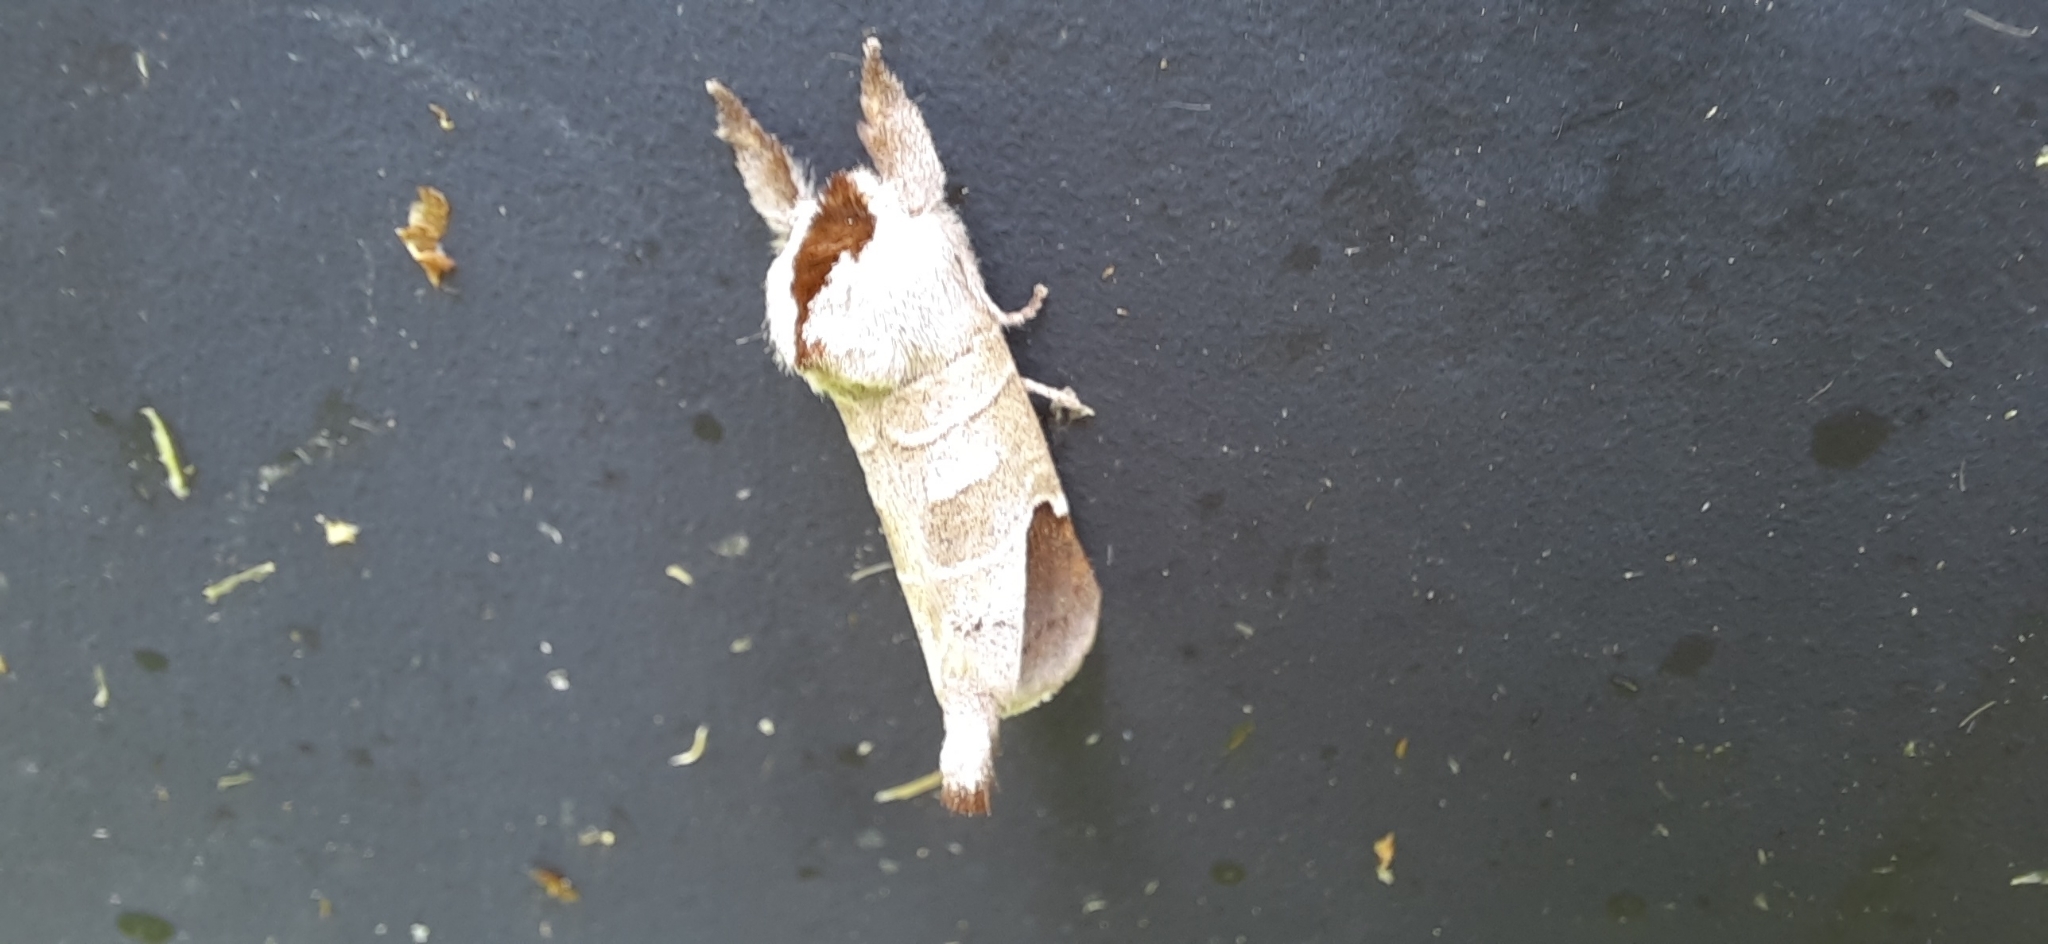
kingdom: Animalia
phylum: Arthropoda
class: Insecta
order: Lepidoptera
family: Notodontidae
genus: Clostera
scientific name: Clostera curtula
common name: Chocolate-tip
